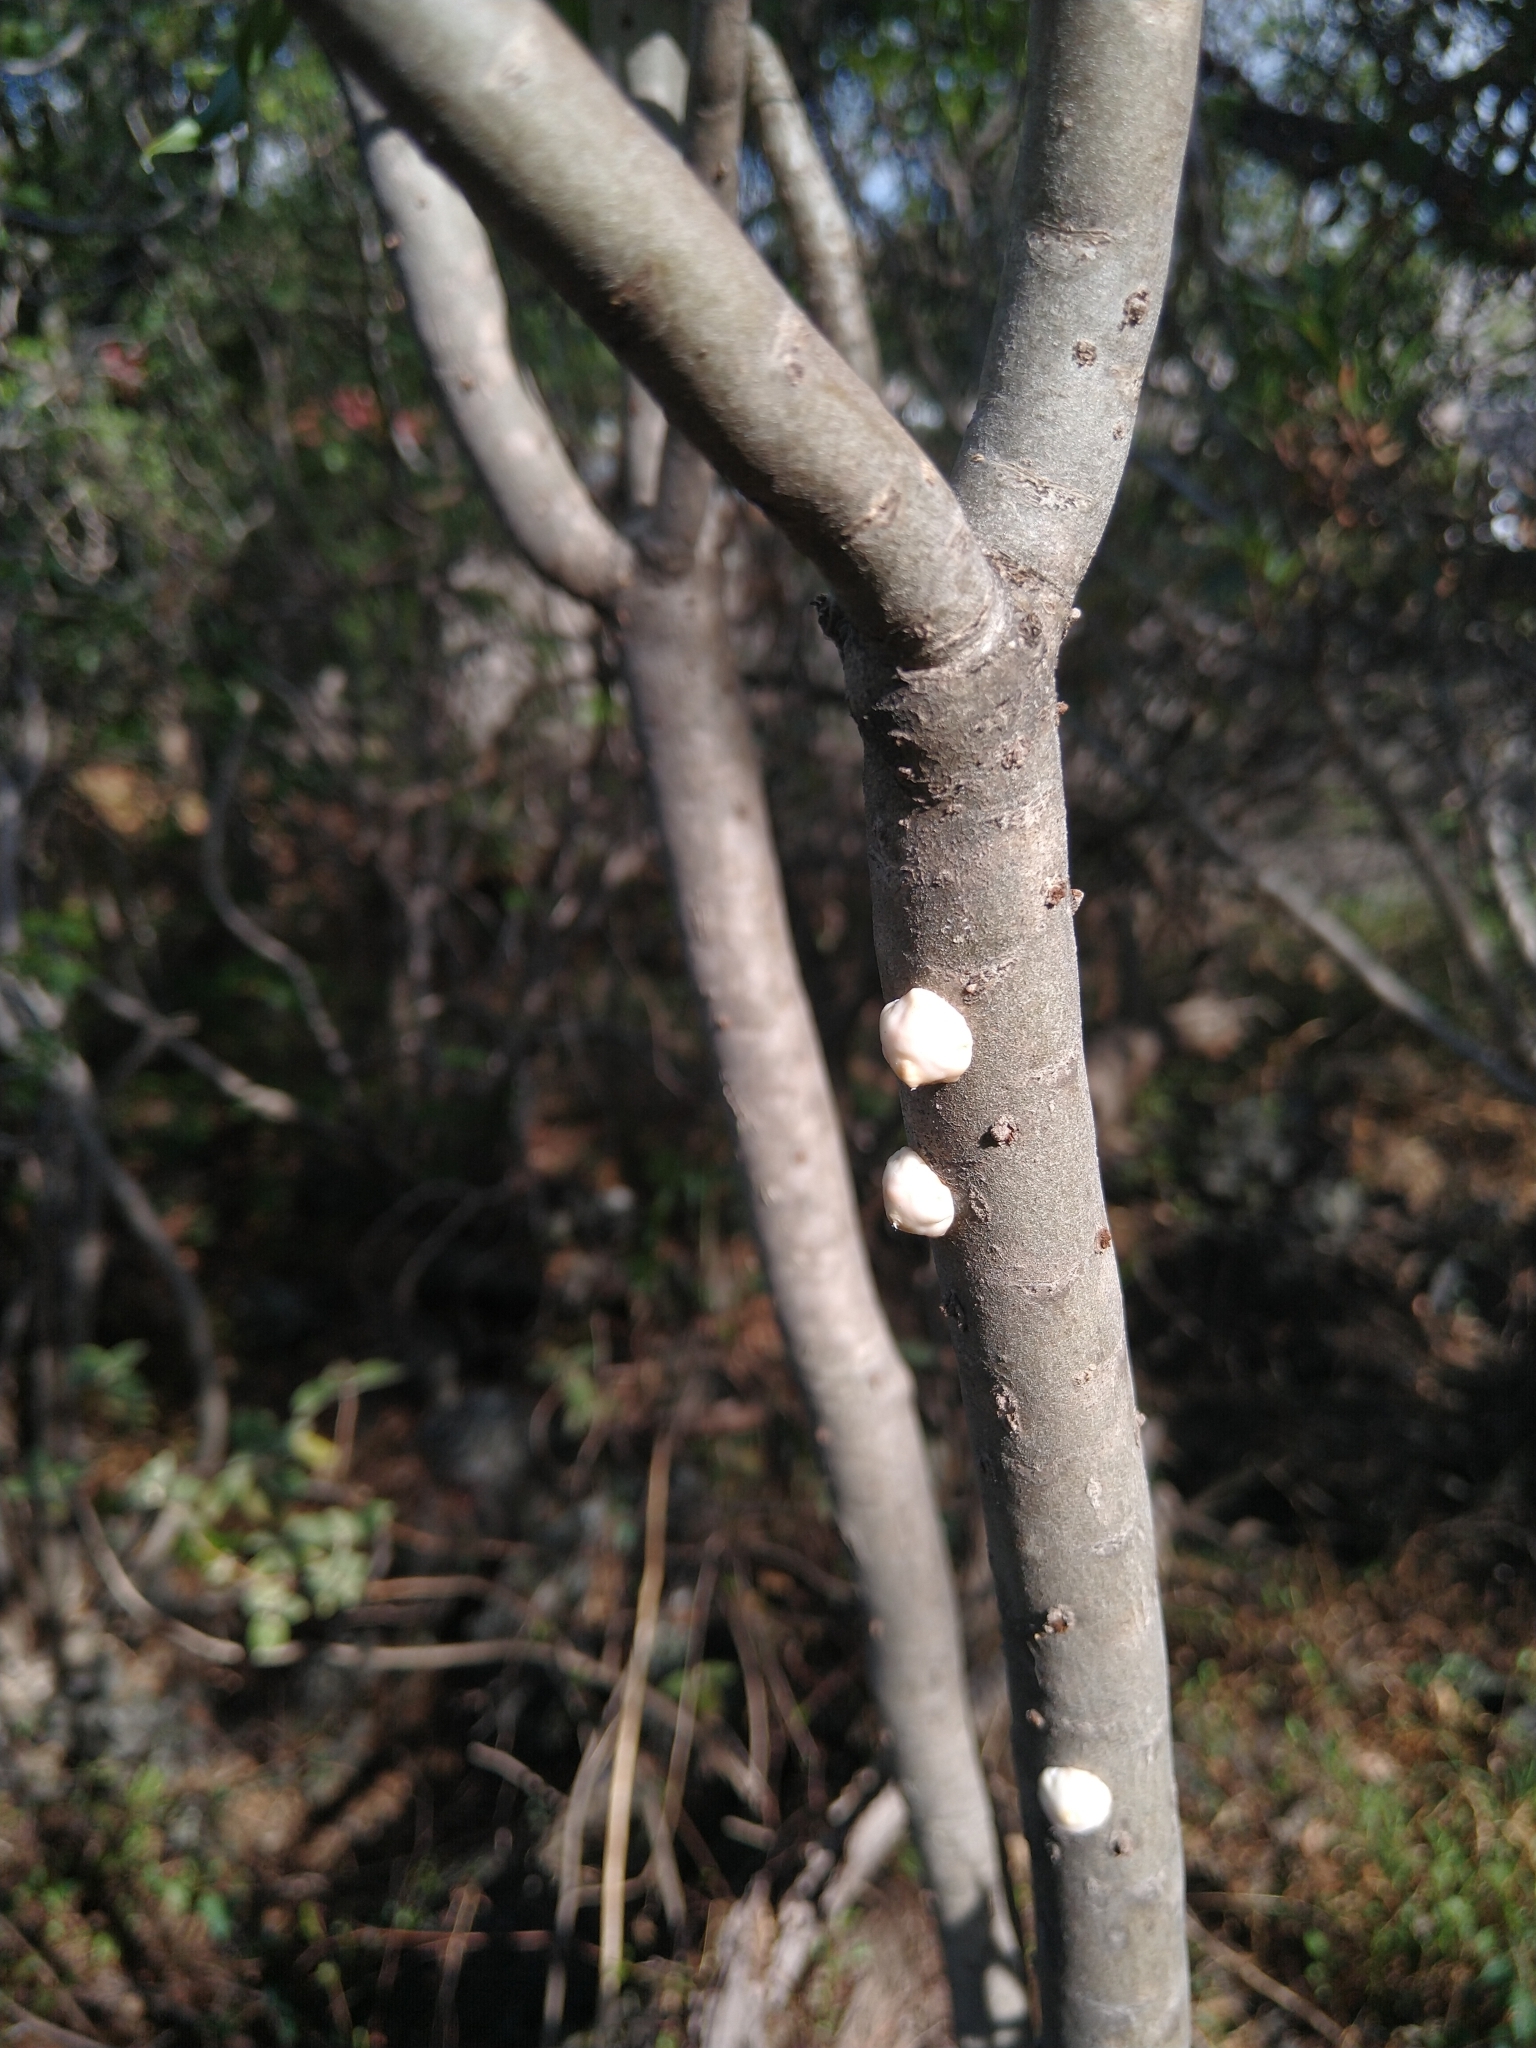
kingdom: Animalia
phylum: Arthropoda
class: Insecta
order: Hemiptera
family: Coccidae
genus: Ceroplastes
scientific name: Ceroplastes albolineatus
